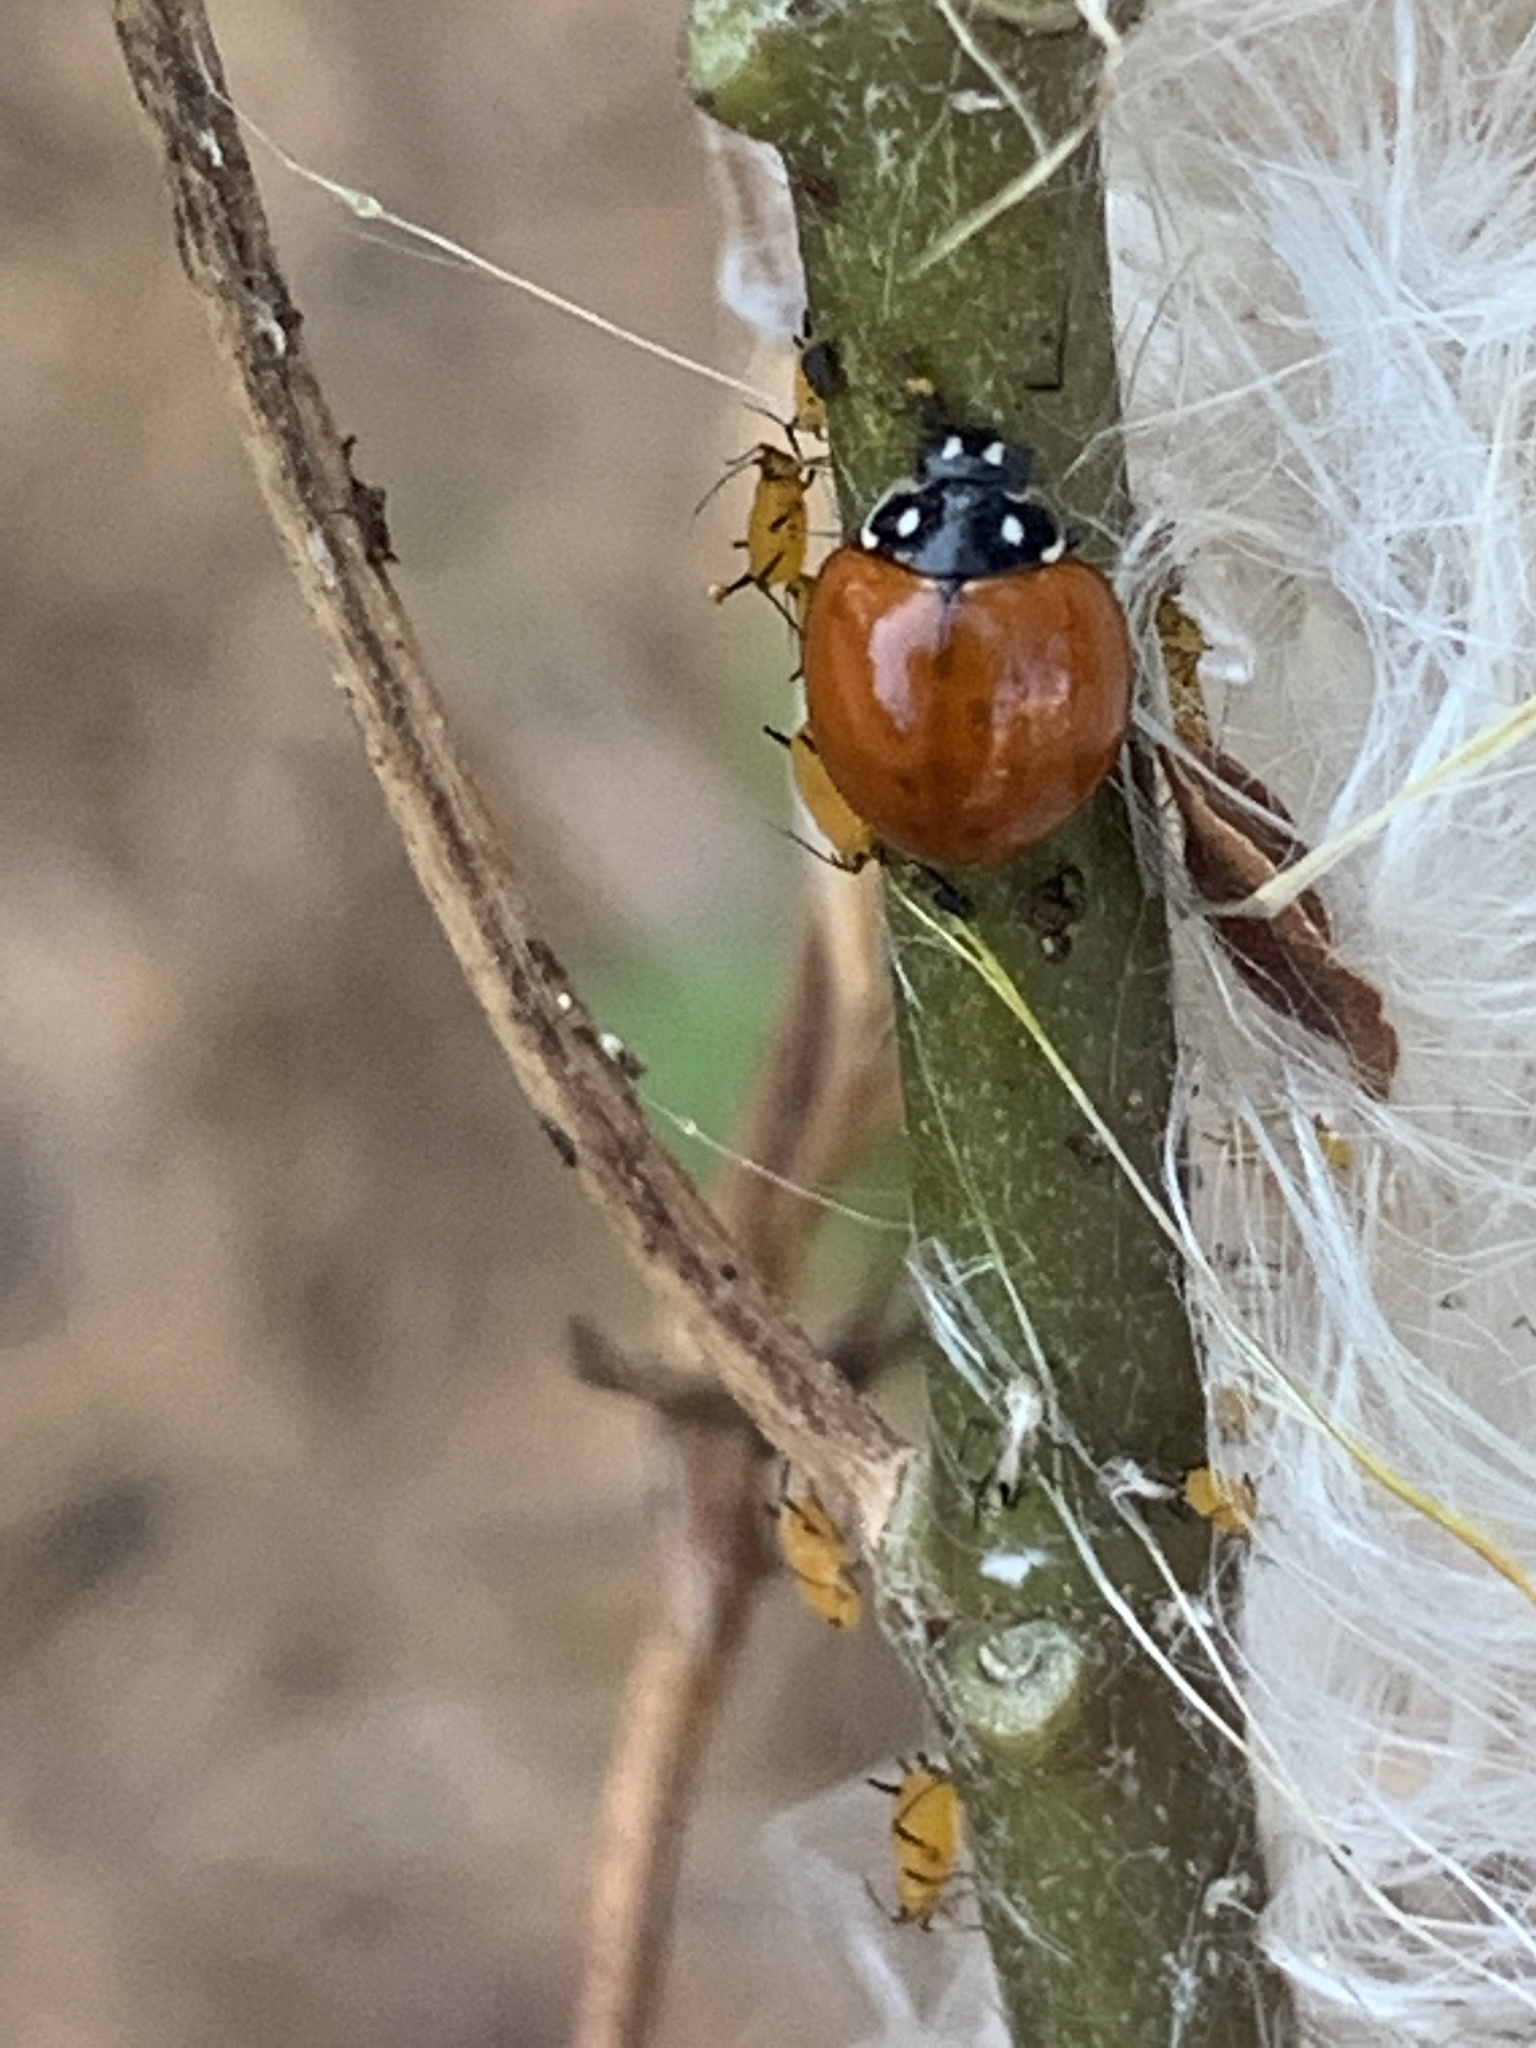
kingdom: Animalia
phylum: Arthropoda
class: Insecta
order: Coleoptera
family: Coccinellidae
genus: Cycloneda
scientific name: Cycloneda sanguinea
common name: Ladybird beetle
